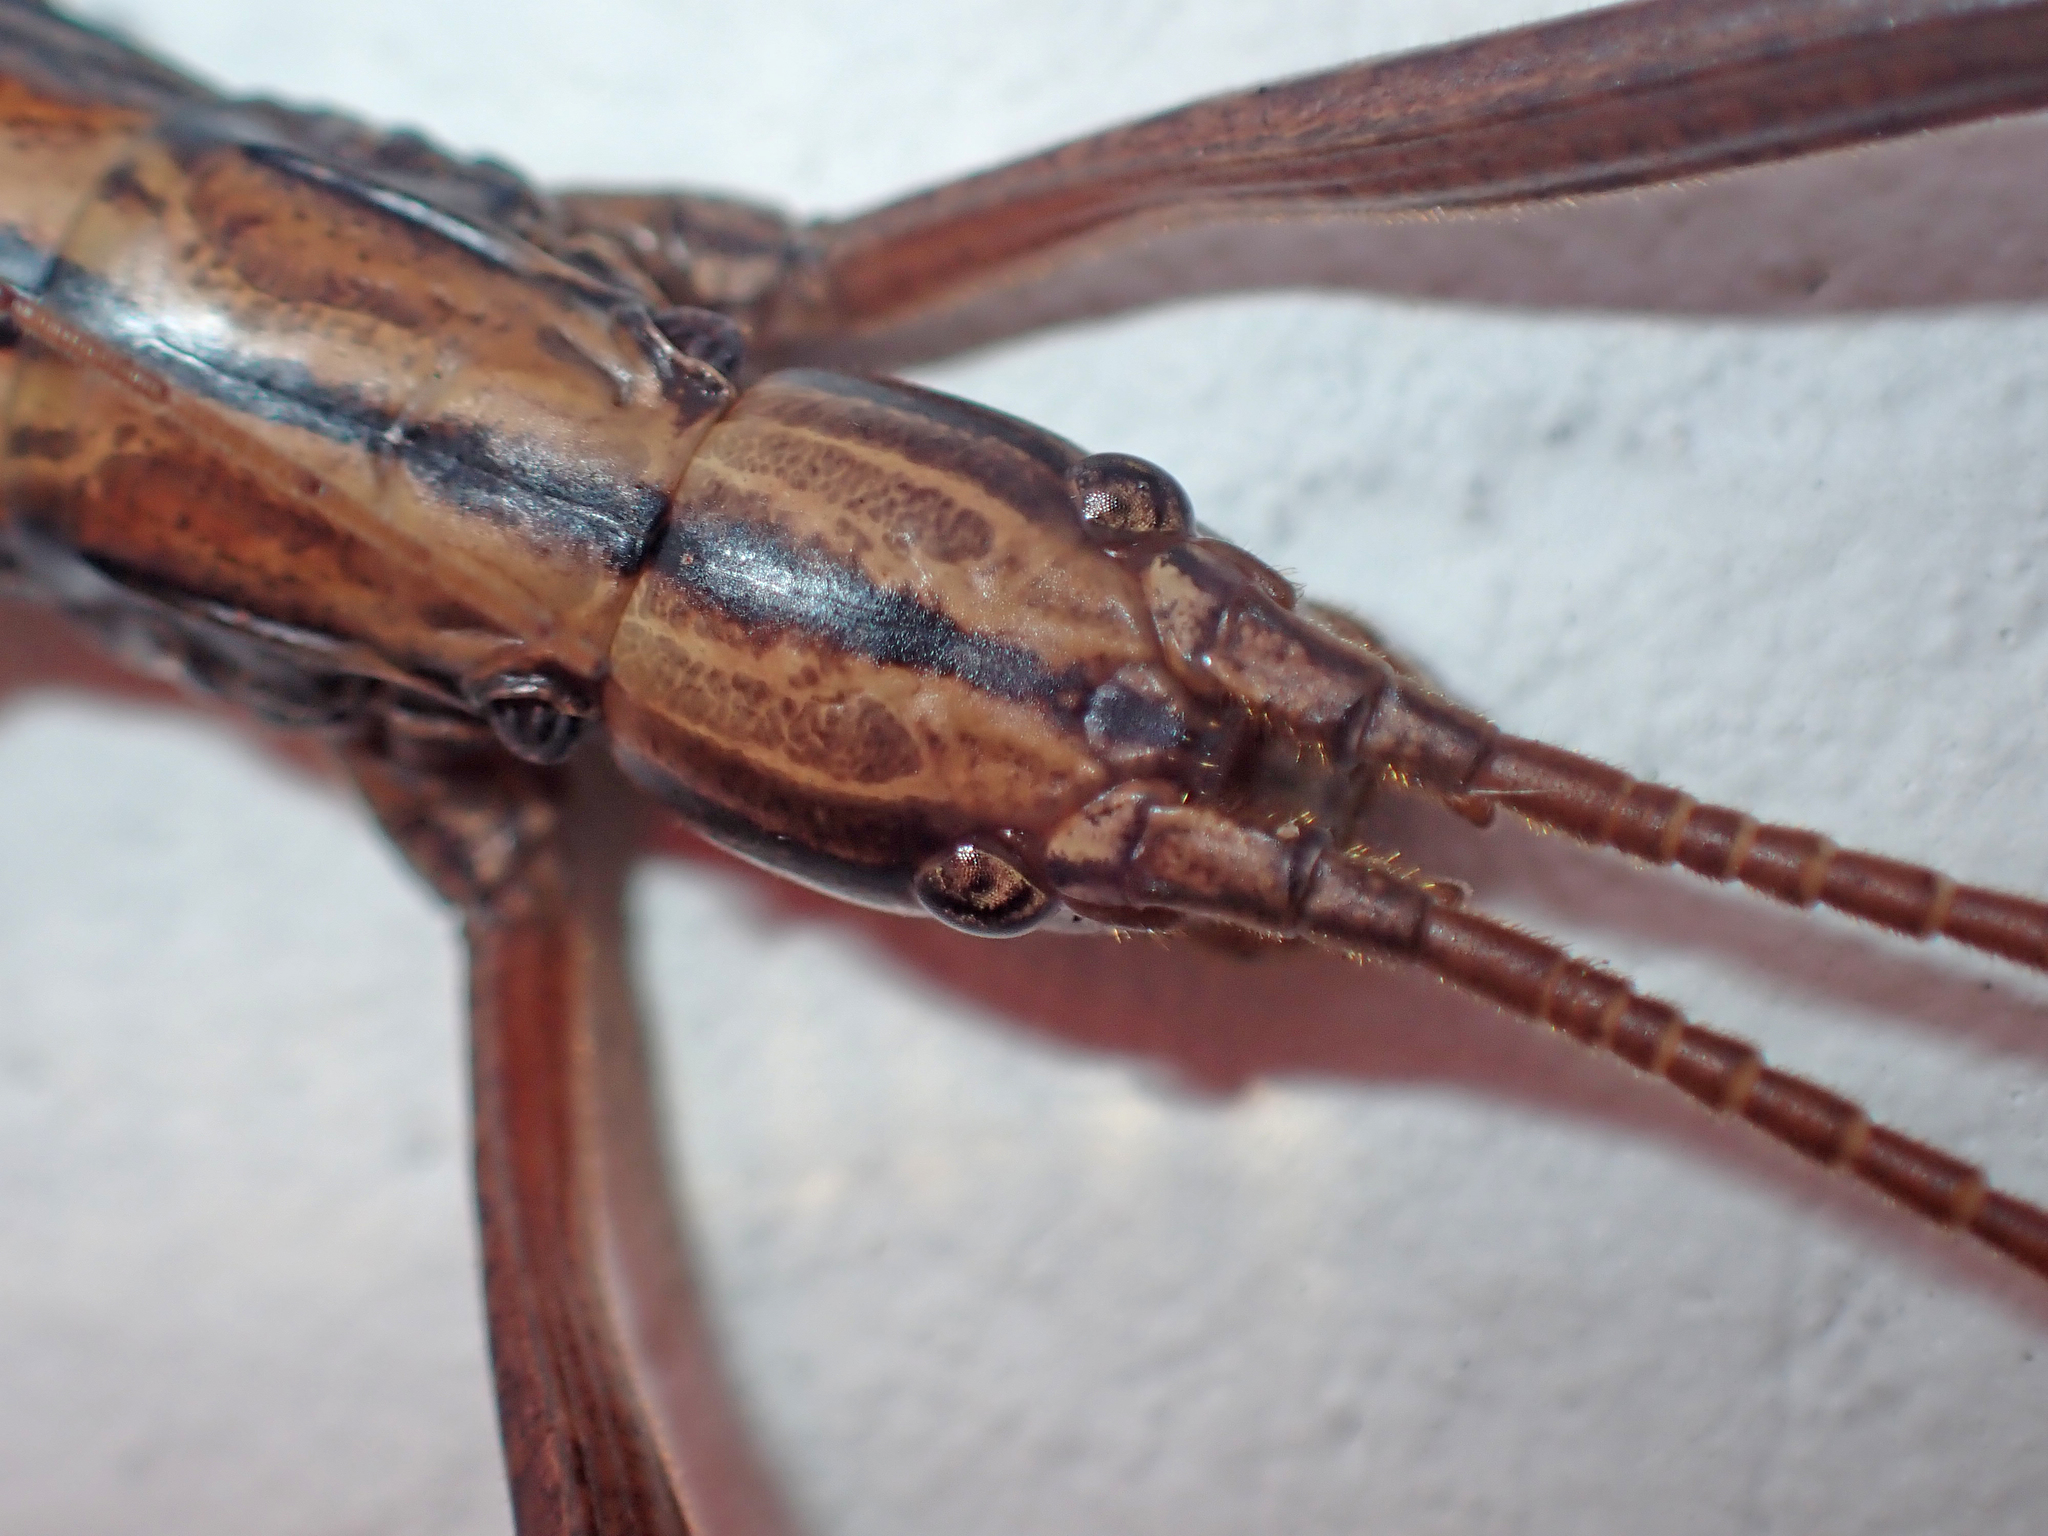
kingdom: Animalia
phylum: Arthropoda
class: Insecta
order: Phasmida
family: Pseudophasmatidae
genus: Anisomorpha
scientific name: Anisomorpha buprestoides
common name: Florida stick insect
